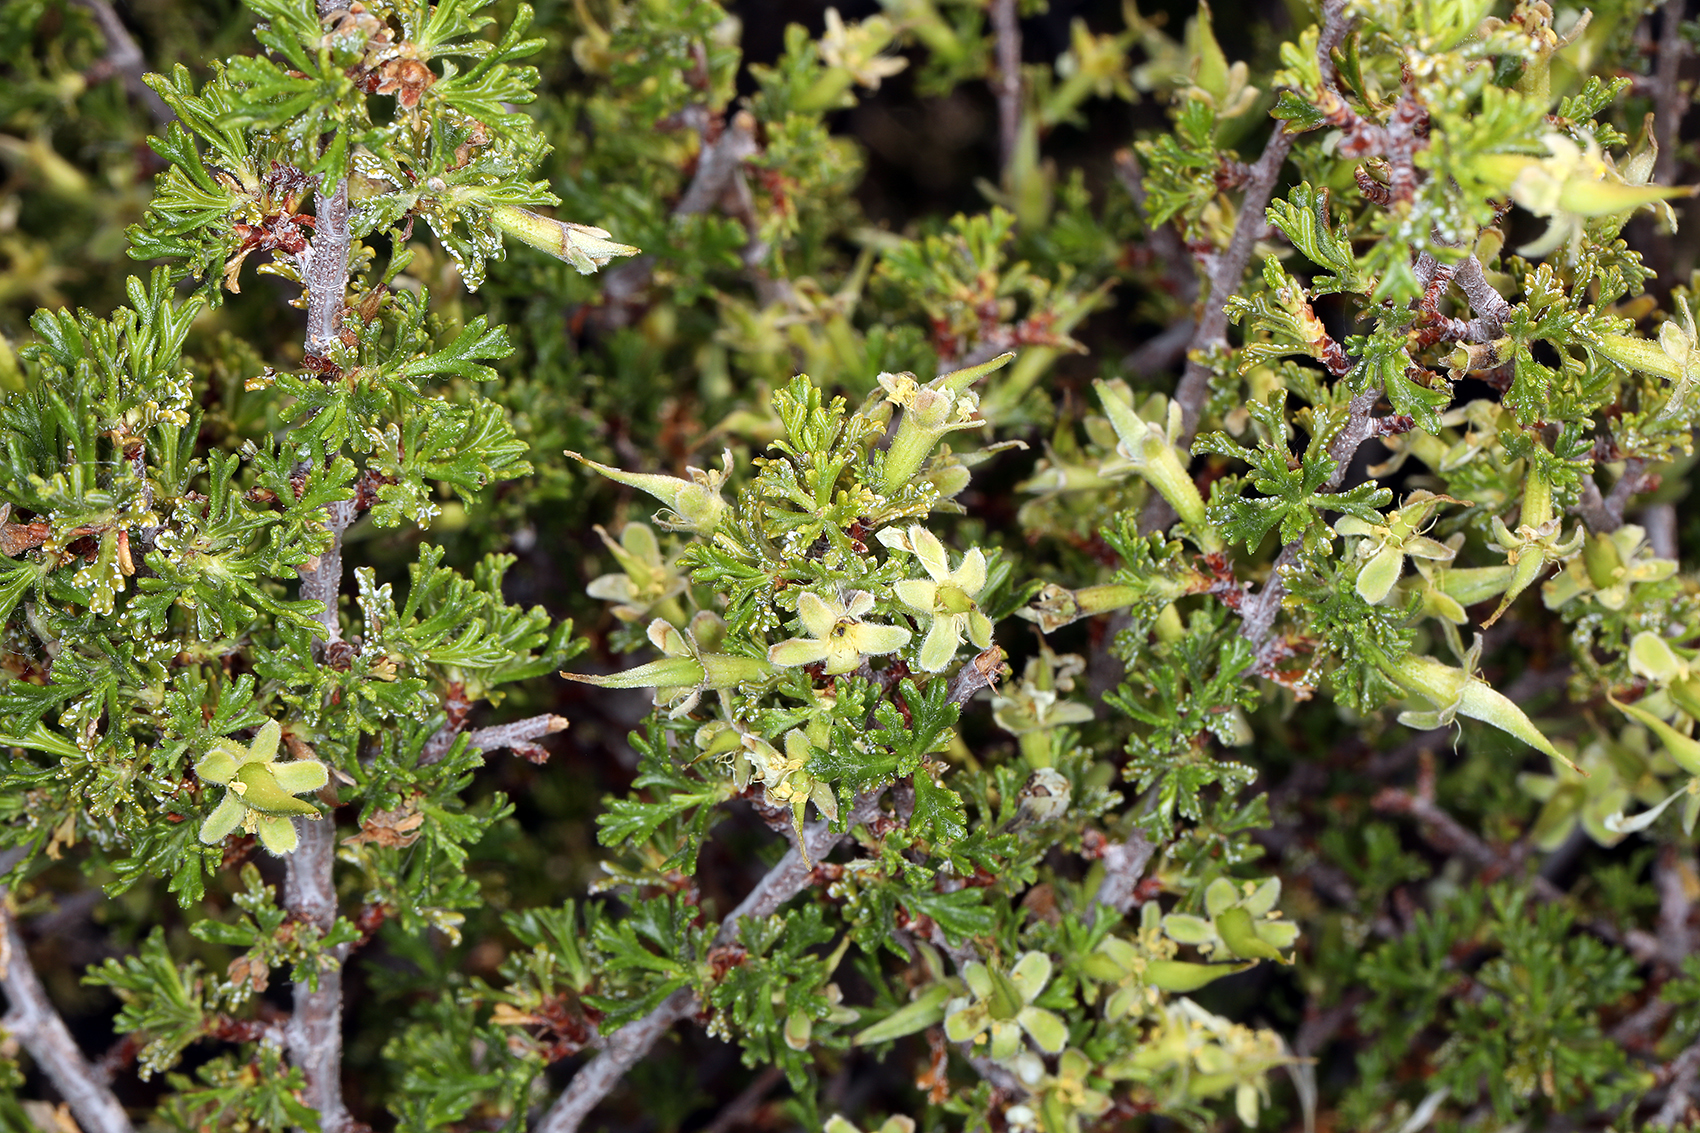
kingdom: Plantae
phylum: Tracheophyta
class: Magnoliopsida
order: Rosales
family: Rosaceae
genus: Purshia
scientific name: Purshia glandulosa
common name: Desert bitterbrush
